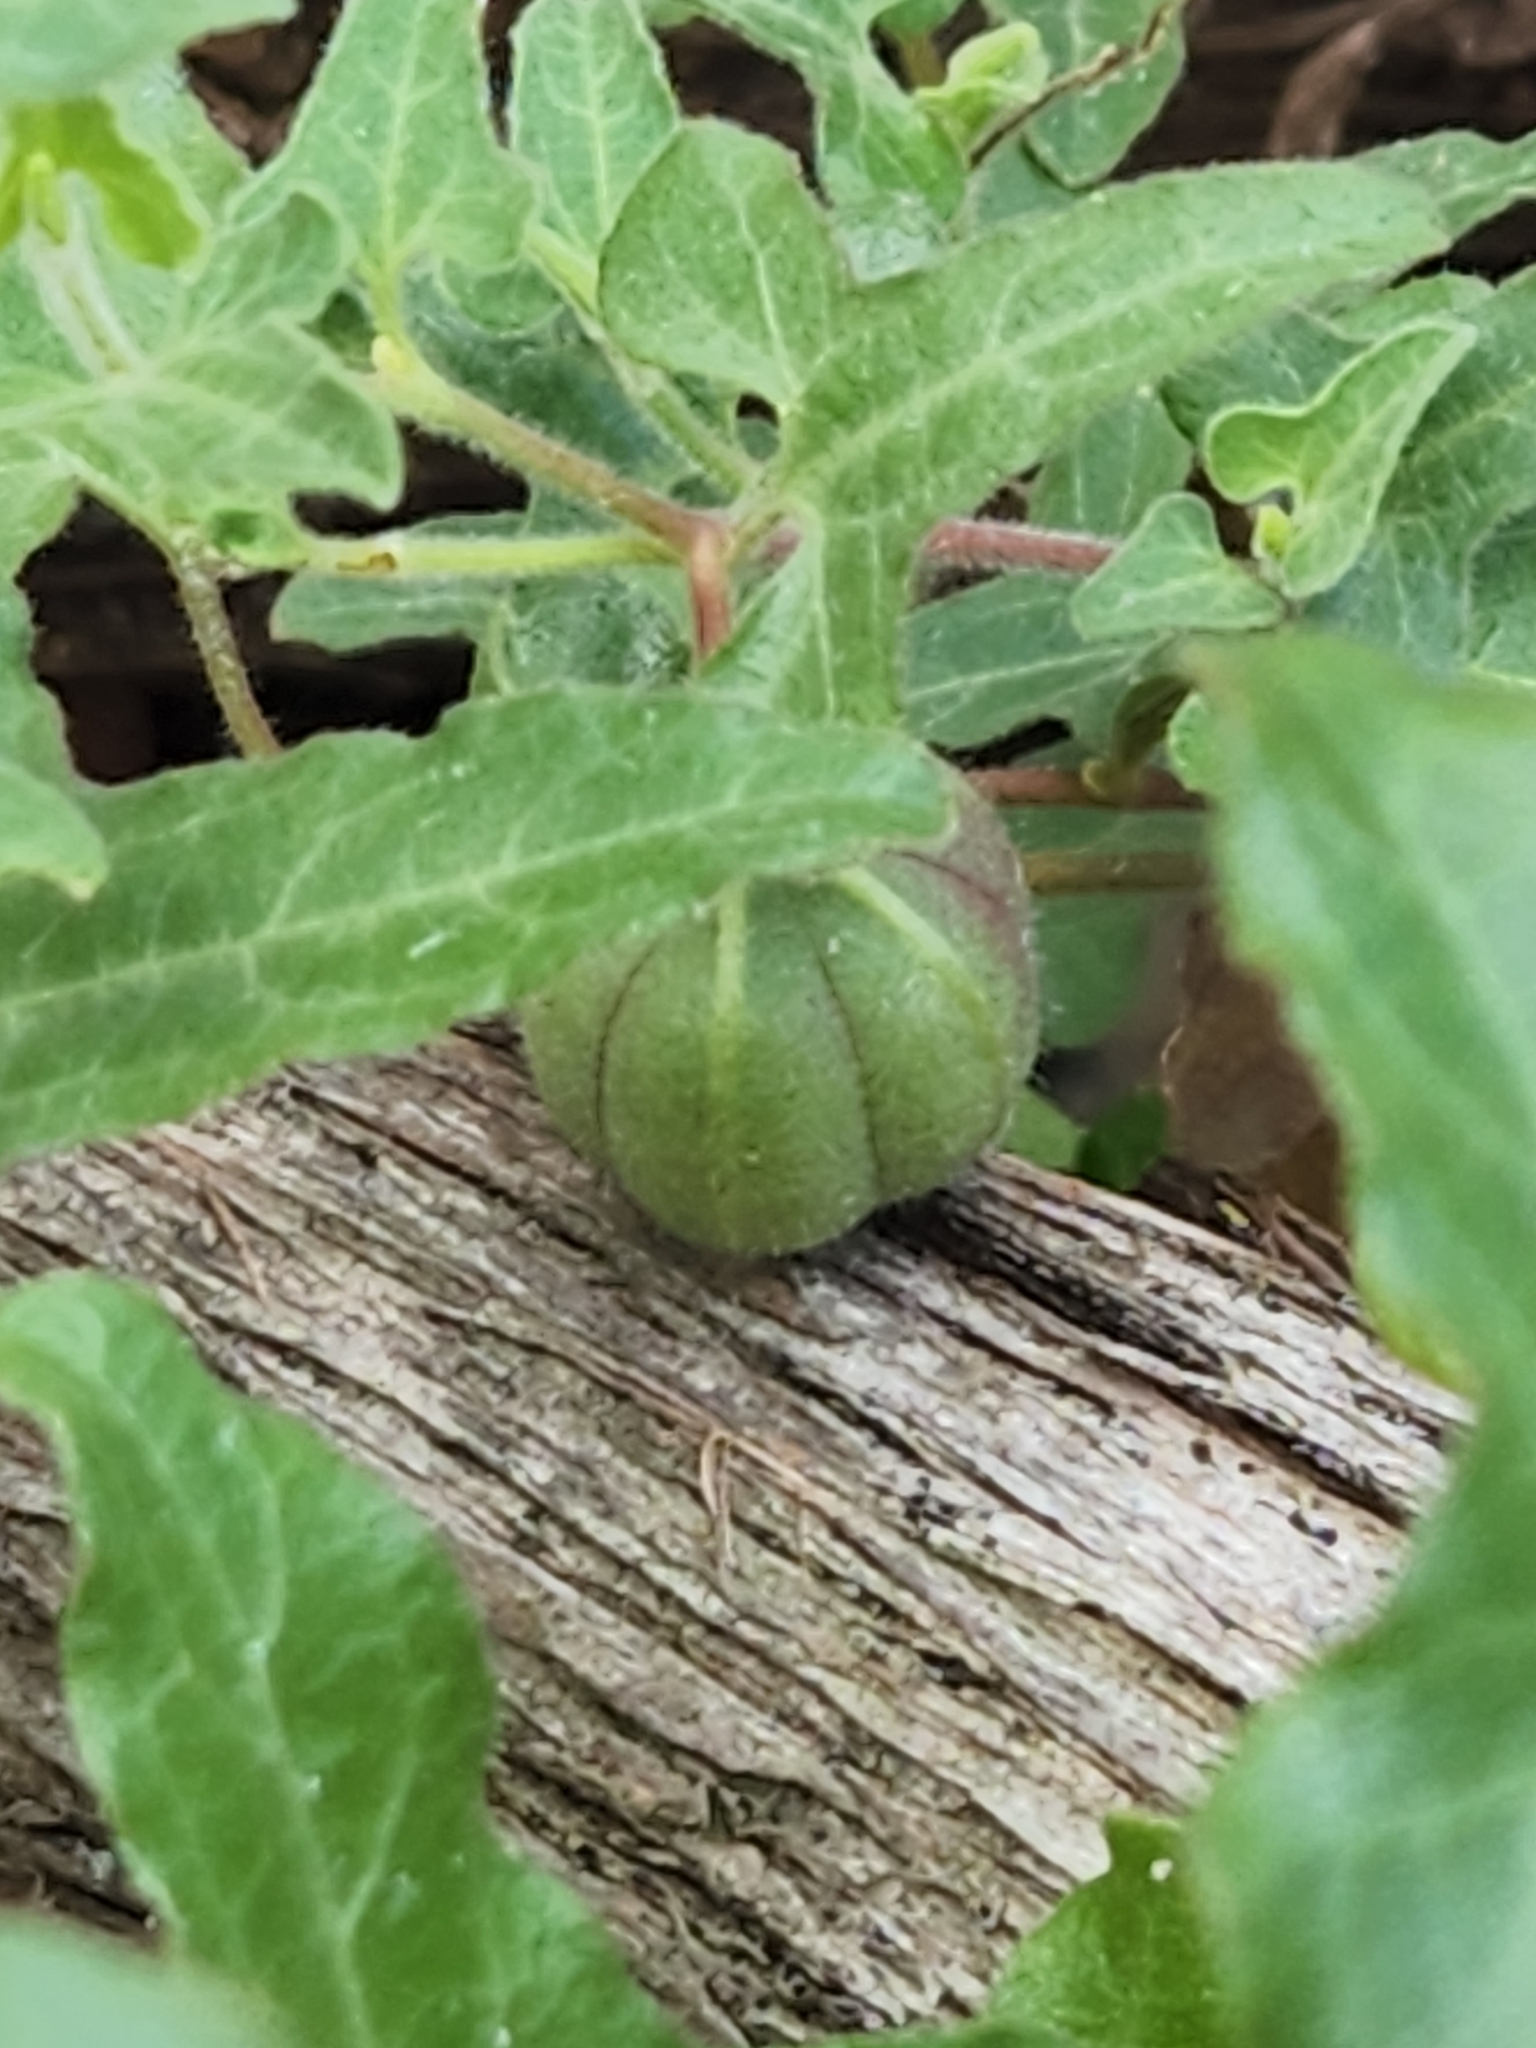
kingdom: Plantae
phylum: Tracheophyta
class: Magnoliopsida
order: Piperales
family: Aristolochiaceae
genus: Aristolochia
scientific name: Aristolochia coryi
